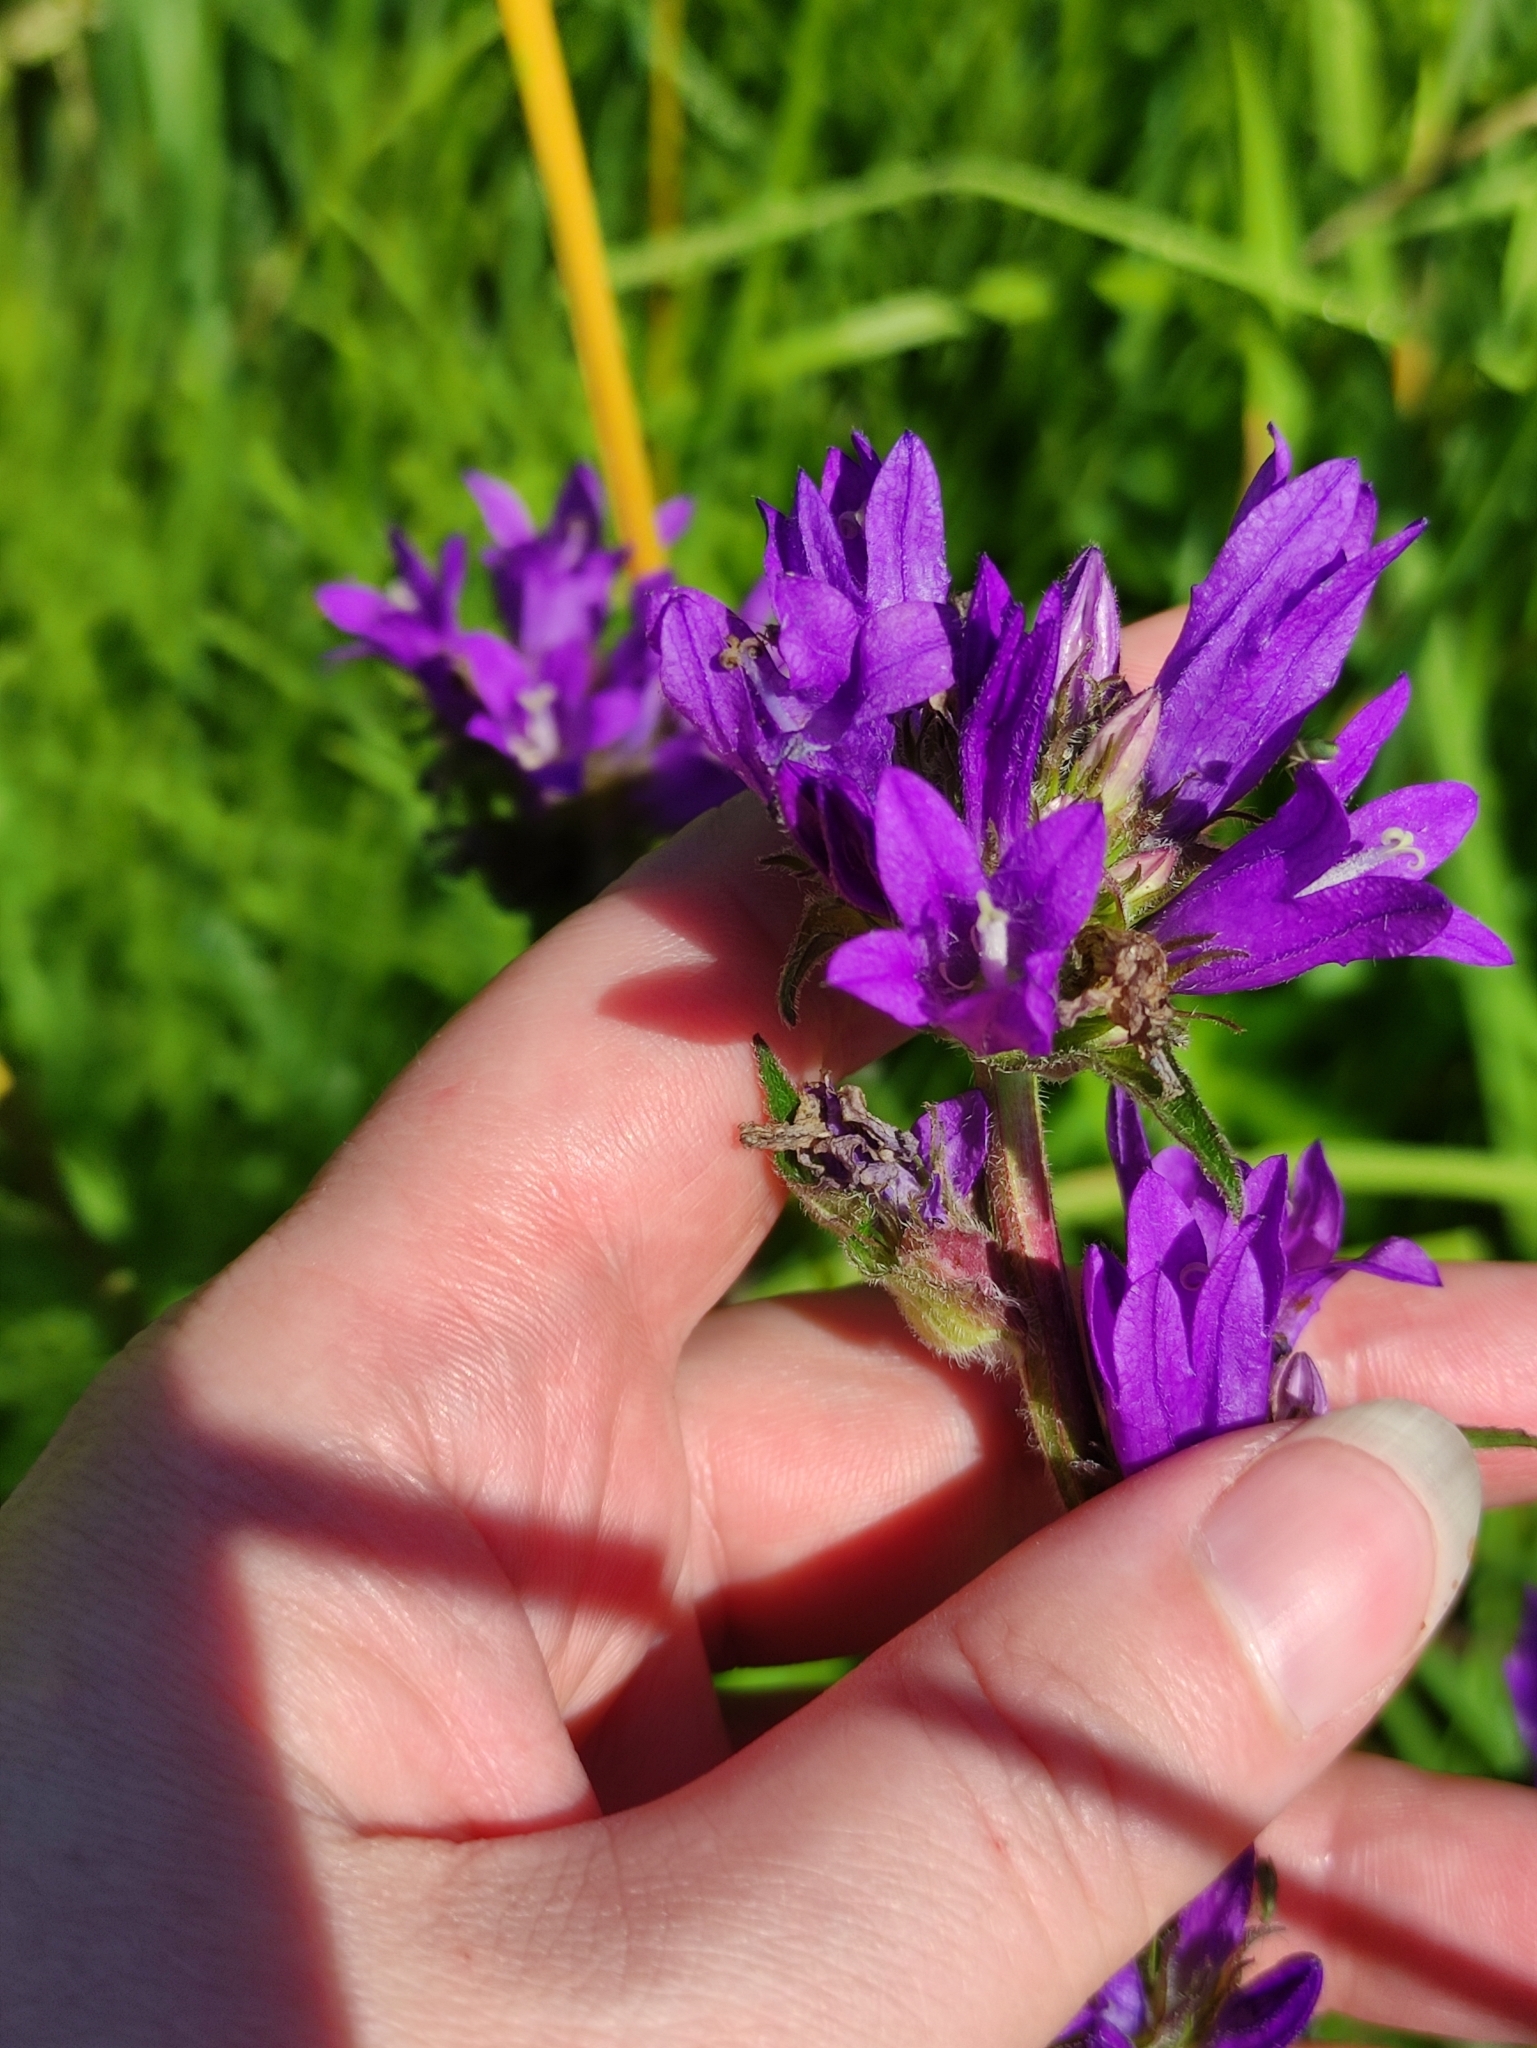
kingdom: Plantae
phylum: Tracheophyta
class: Magnoliopsida
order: Asterales
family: Campanulaceae
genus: Campanula
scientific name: Campanula glomerata
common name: Clustered bellflower
